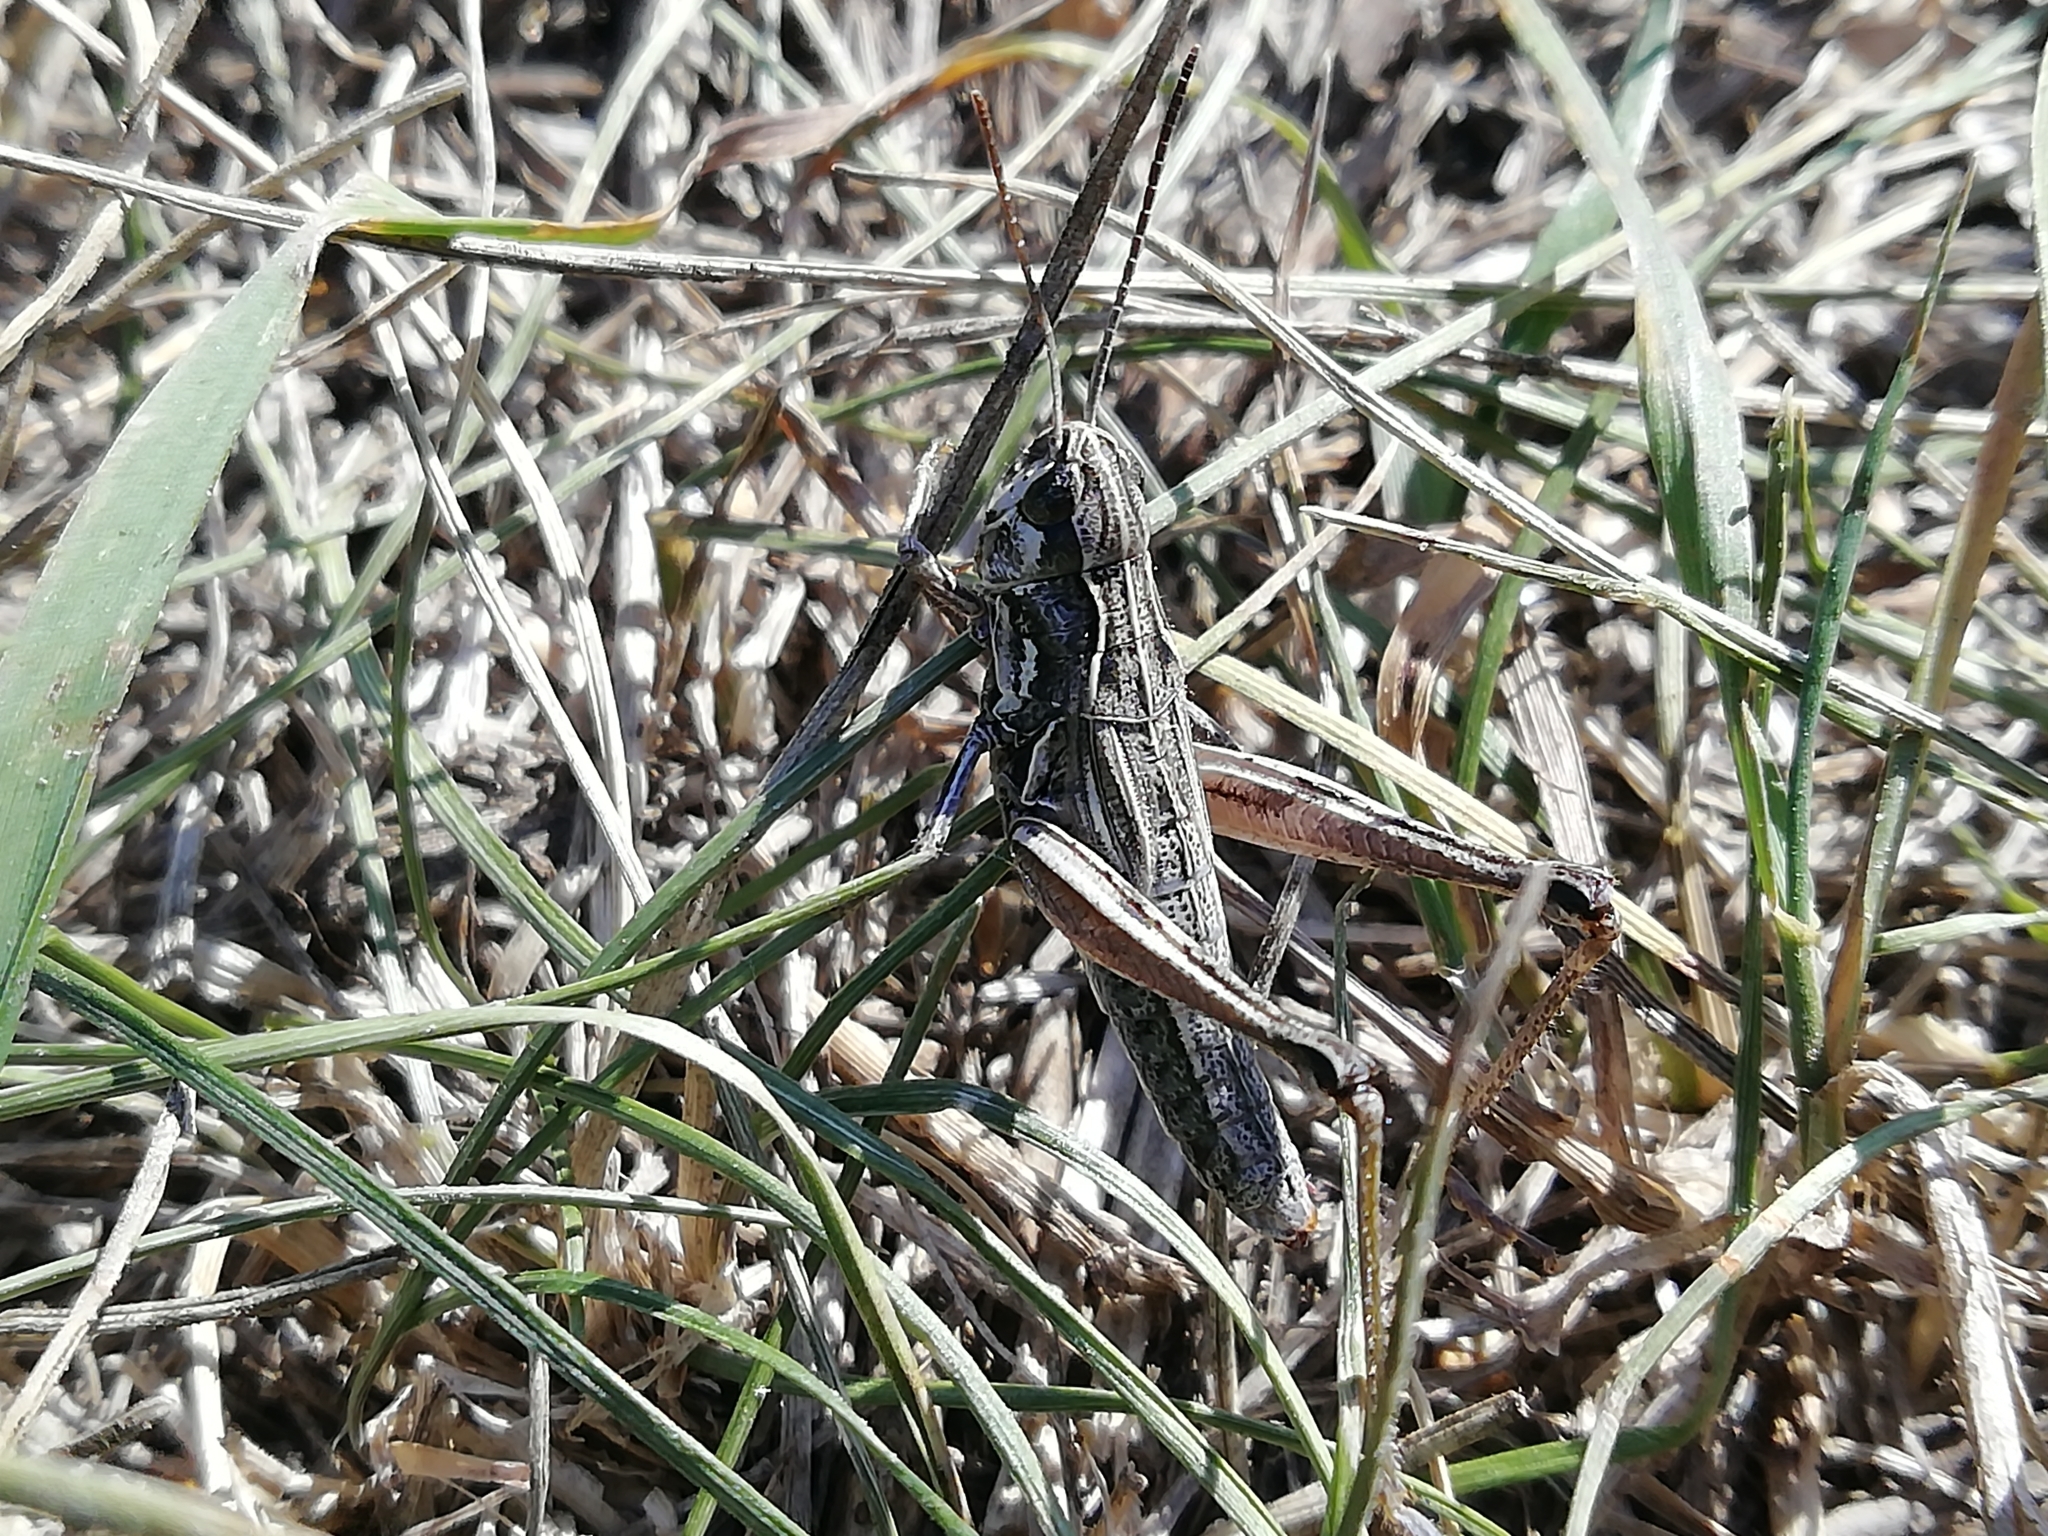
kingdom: Animalia
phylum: Arthropoda
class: Insecta
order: Orthoptera
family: Acrididae
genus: Chorthippus
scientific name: Chorthippus fallax
